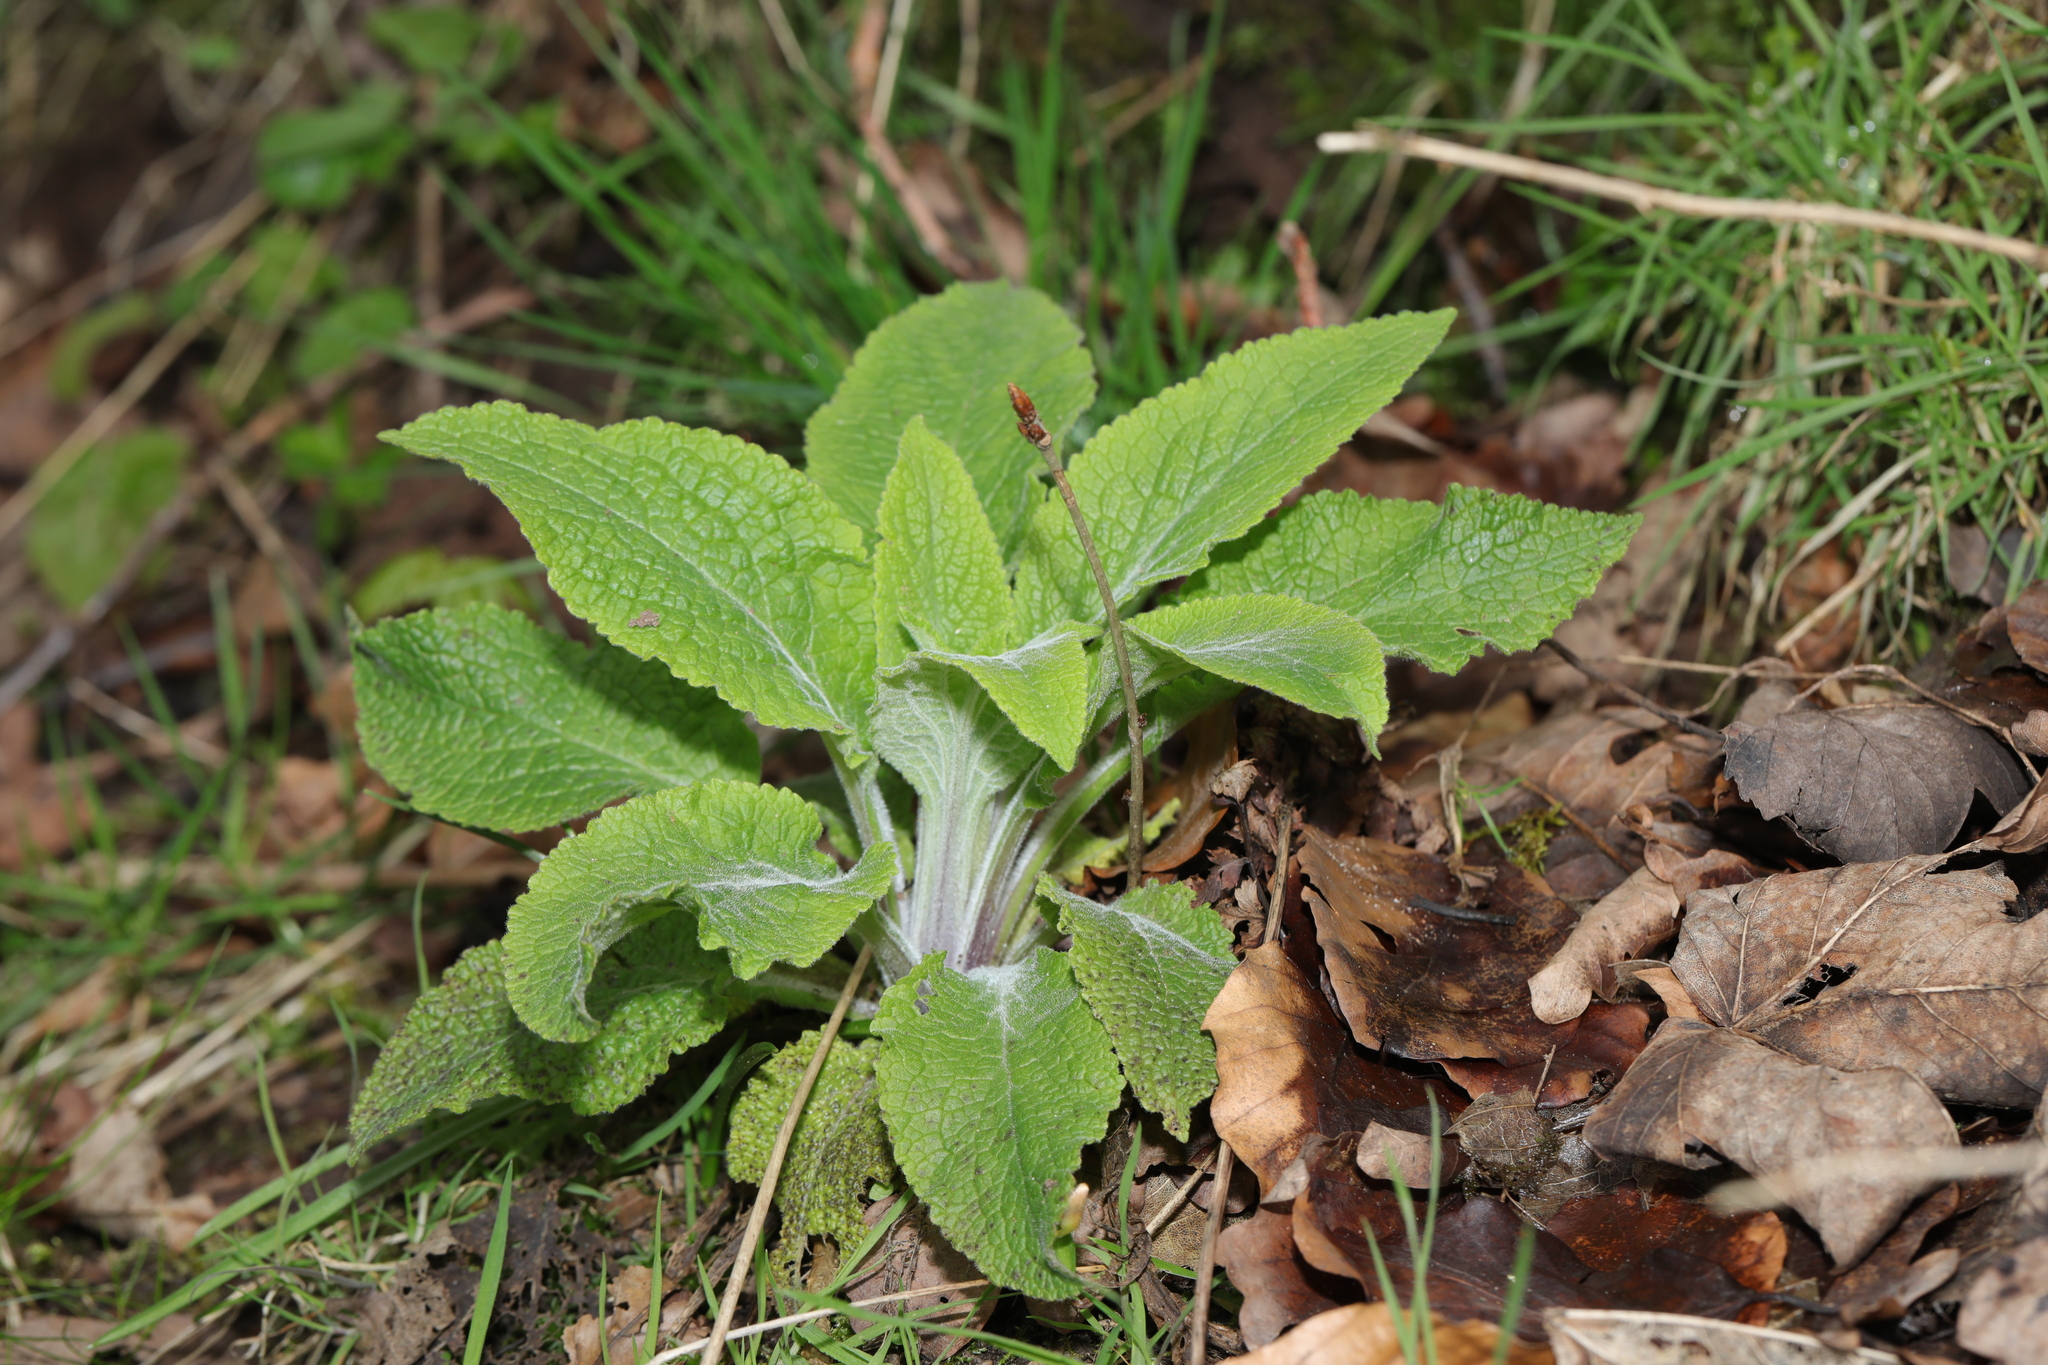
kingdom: Plantae
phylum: Tracheophyta
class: Magnoliopsida
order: Lamiales
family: Plantaginaceae
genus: Digitalis
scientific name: Digitalis purpurea
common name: Foxglove
